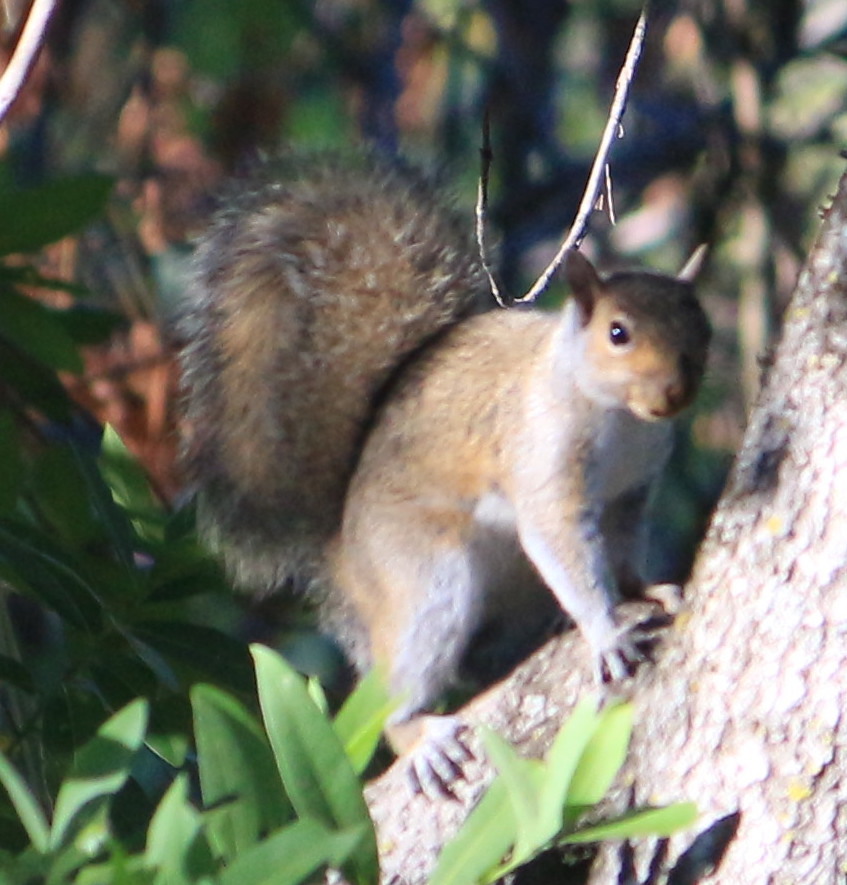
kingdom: Animalia
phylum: Chordata
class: Mammalia
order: Rodentia
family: Sciuridae
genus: Sciurus
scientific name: Sciurus carolinensis
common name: Eastern gray squirrel
